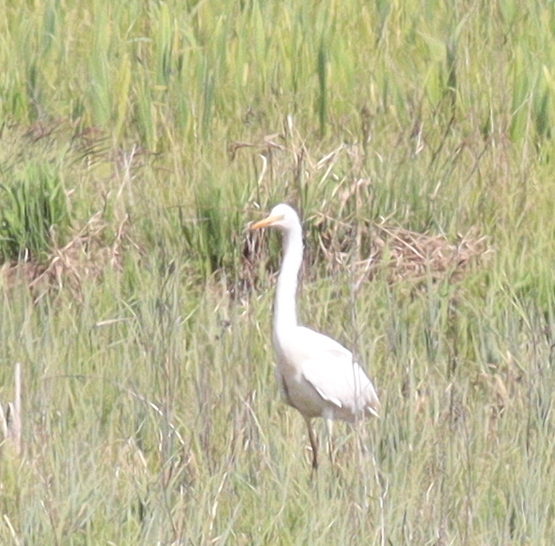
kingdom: Animalia
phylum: Chordata
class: Aves
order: Pelecaniformes
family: Ardeidae
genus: Ardea
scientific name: Ardea alba
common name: Great egret
